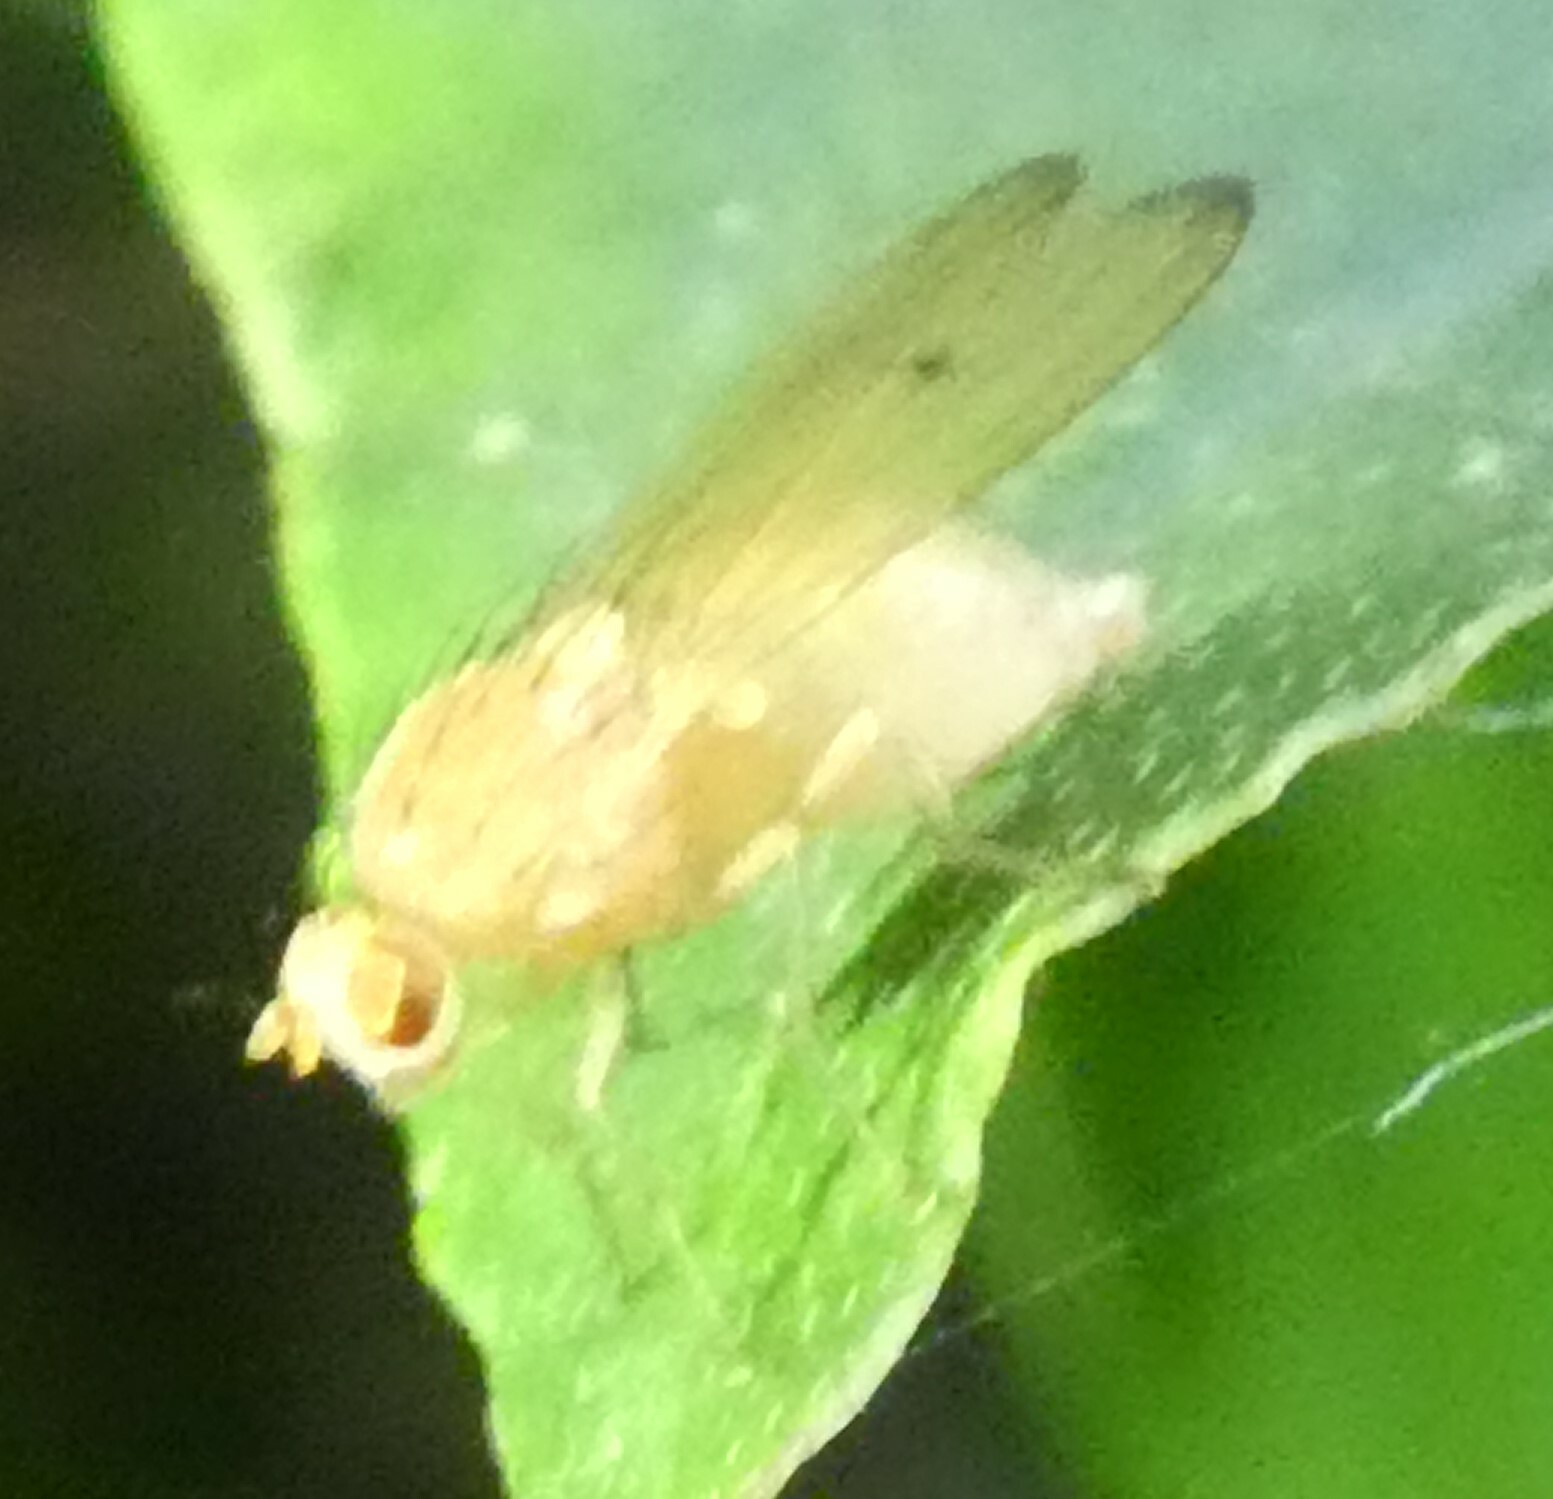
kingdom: Animalia
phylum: Arthropoda
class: Insecta
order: Diptera
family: Lauxaniidae
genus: Tricholauxania
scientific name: Tricholauxania praeusta
